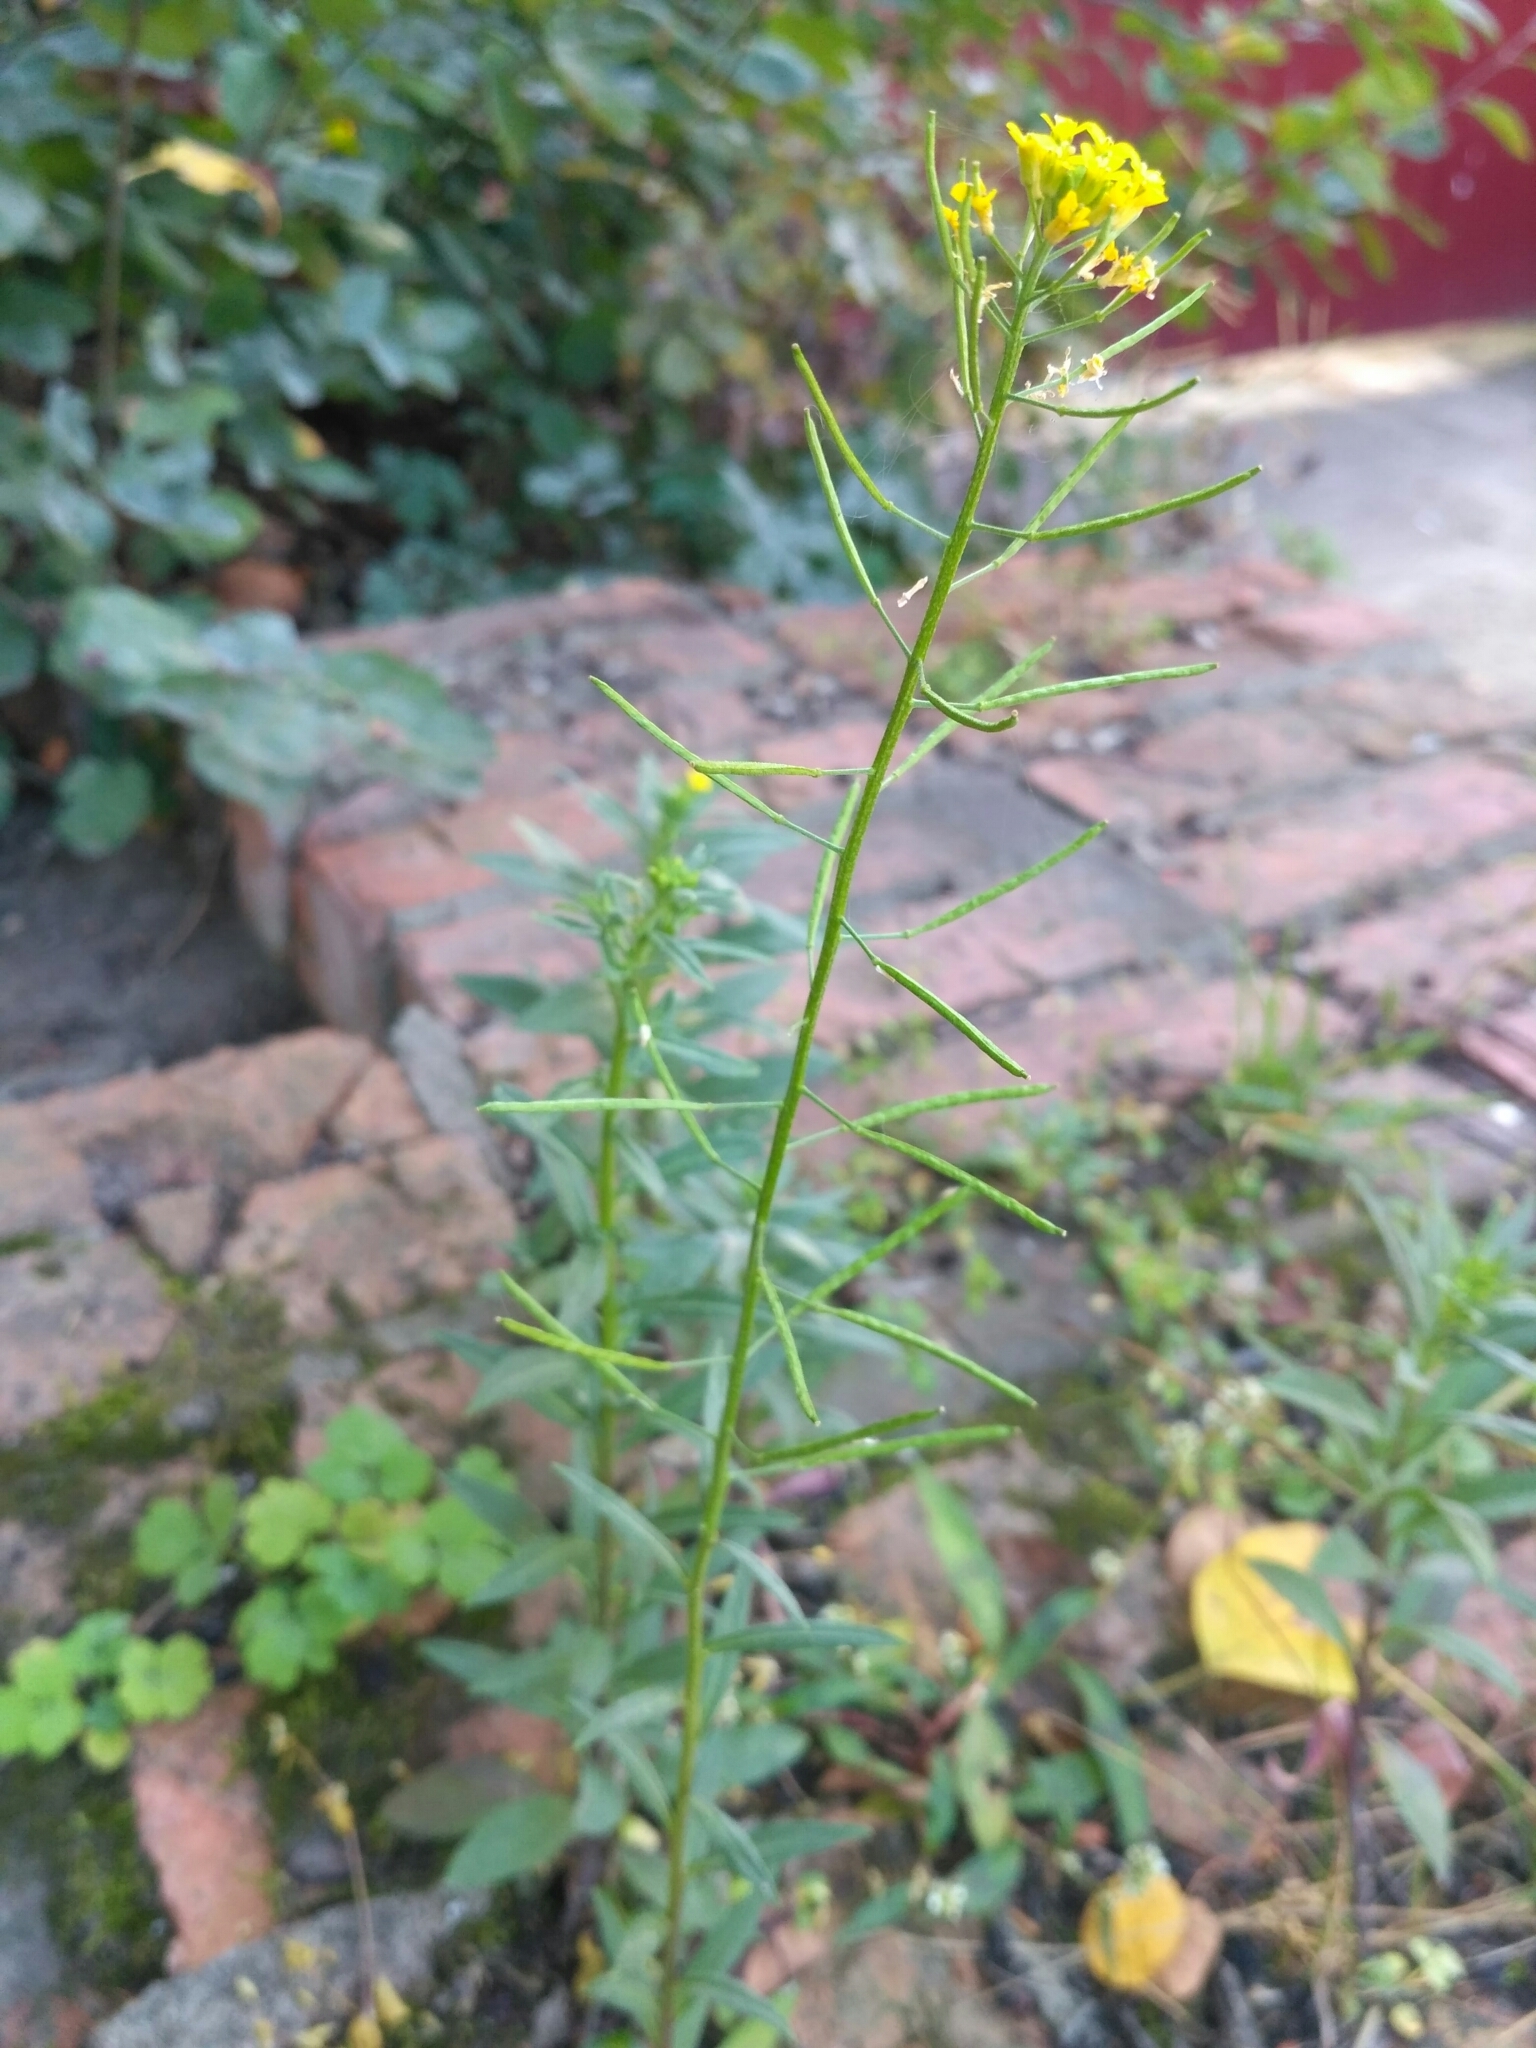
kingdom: Plantae
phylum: Tracheophyta
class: Magnoliopsida
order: Brassicales
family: Brassicaceae
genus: Erysimum
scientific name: Erysimum cheiranthoides
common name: Treacle mustard
